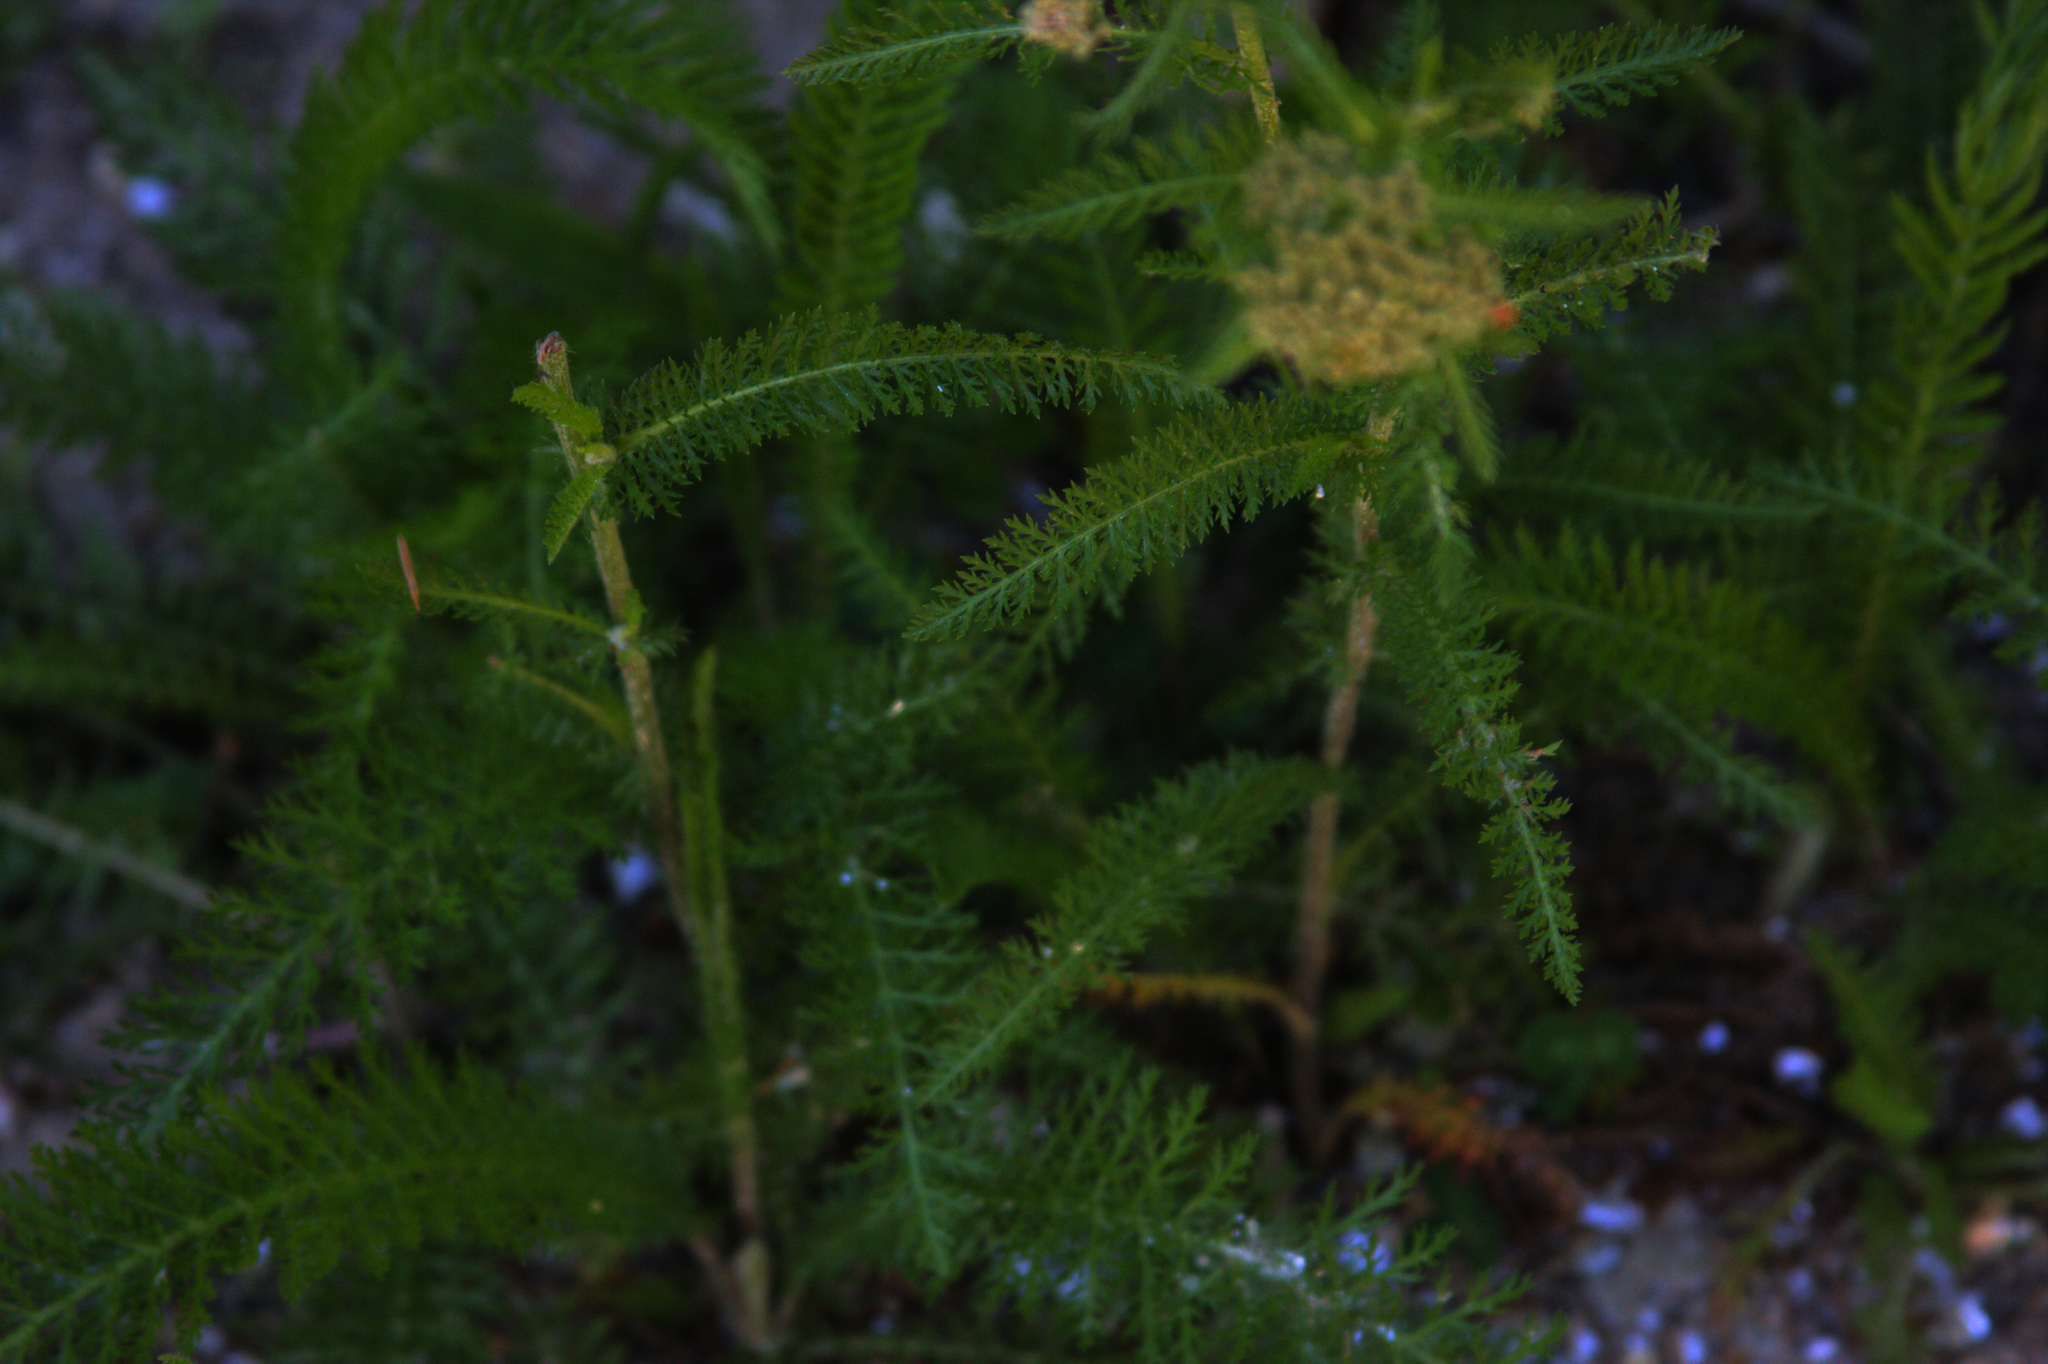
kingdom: Plantae
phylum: Tracheophyta
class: Magnoliopsida
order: Asterales
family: Asteraceae
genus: Achillea
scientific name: Achillea millefolium
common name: Yarrow
